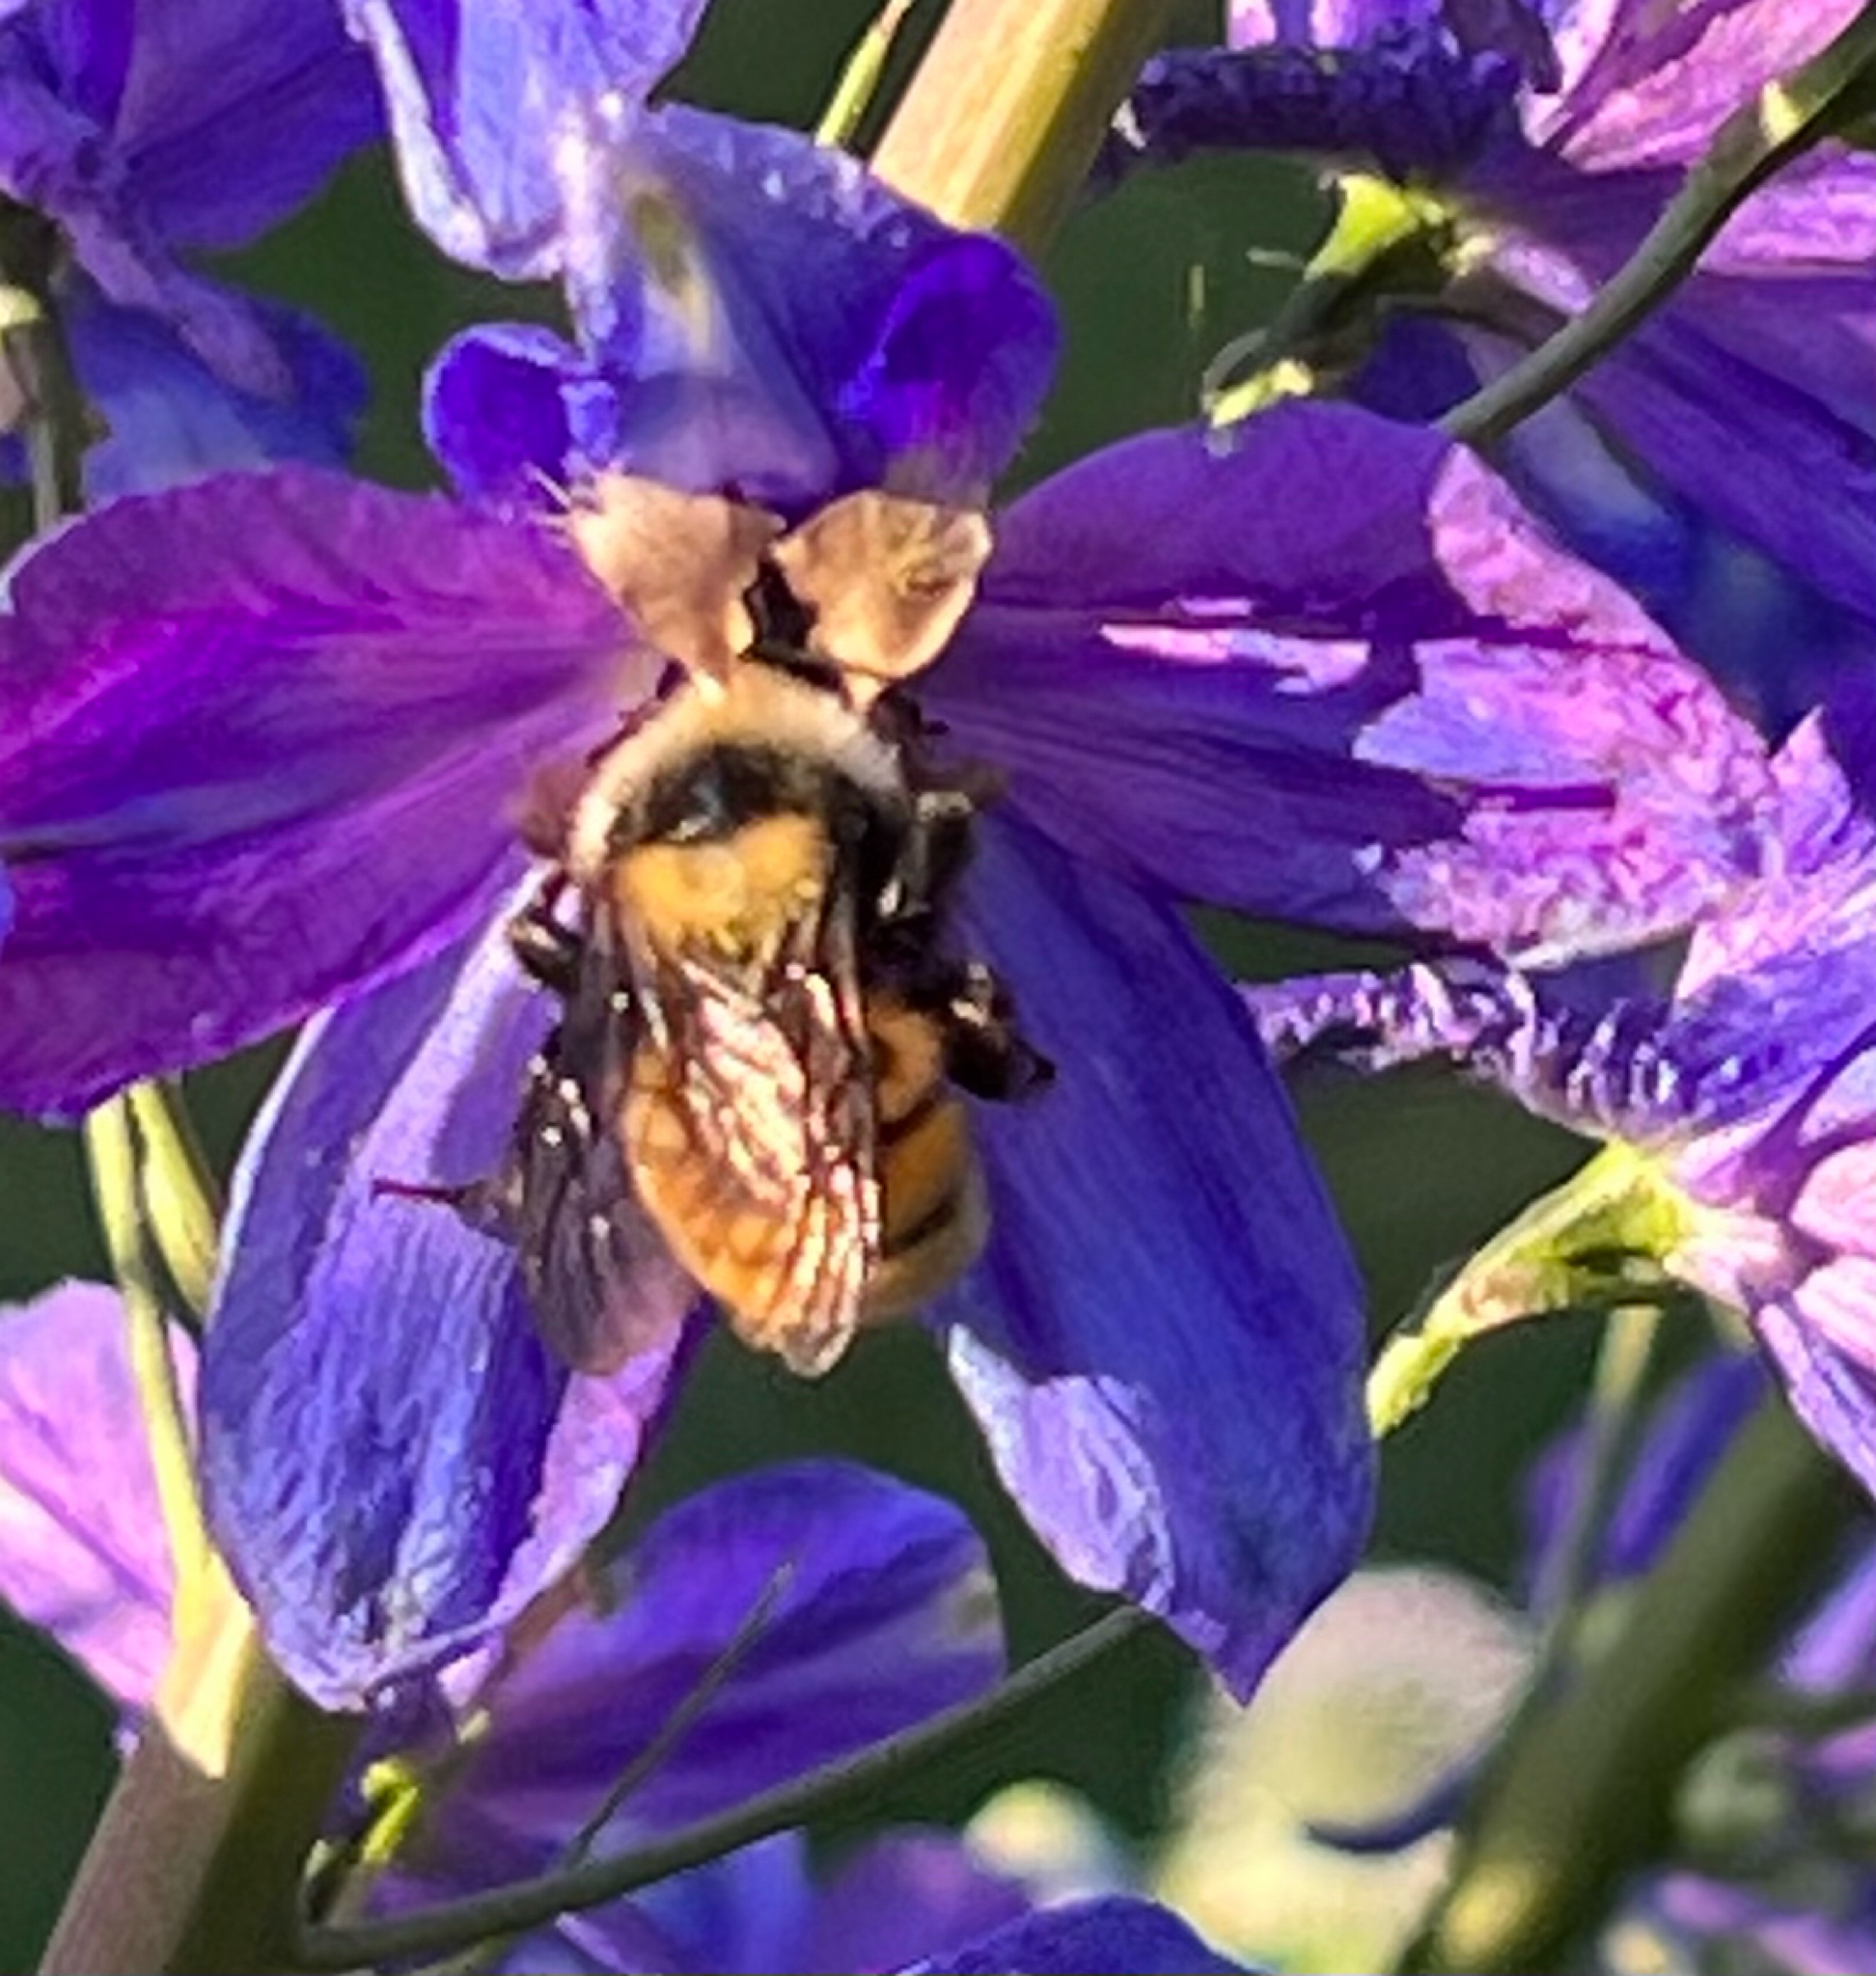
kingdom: Animalia
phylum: Arthropoda
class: Insecta
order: Hymenoptera
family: Apidae
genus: Bombus
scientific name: Bombus appositus
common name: White-shouldered bumble bee
